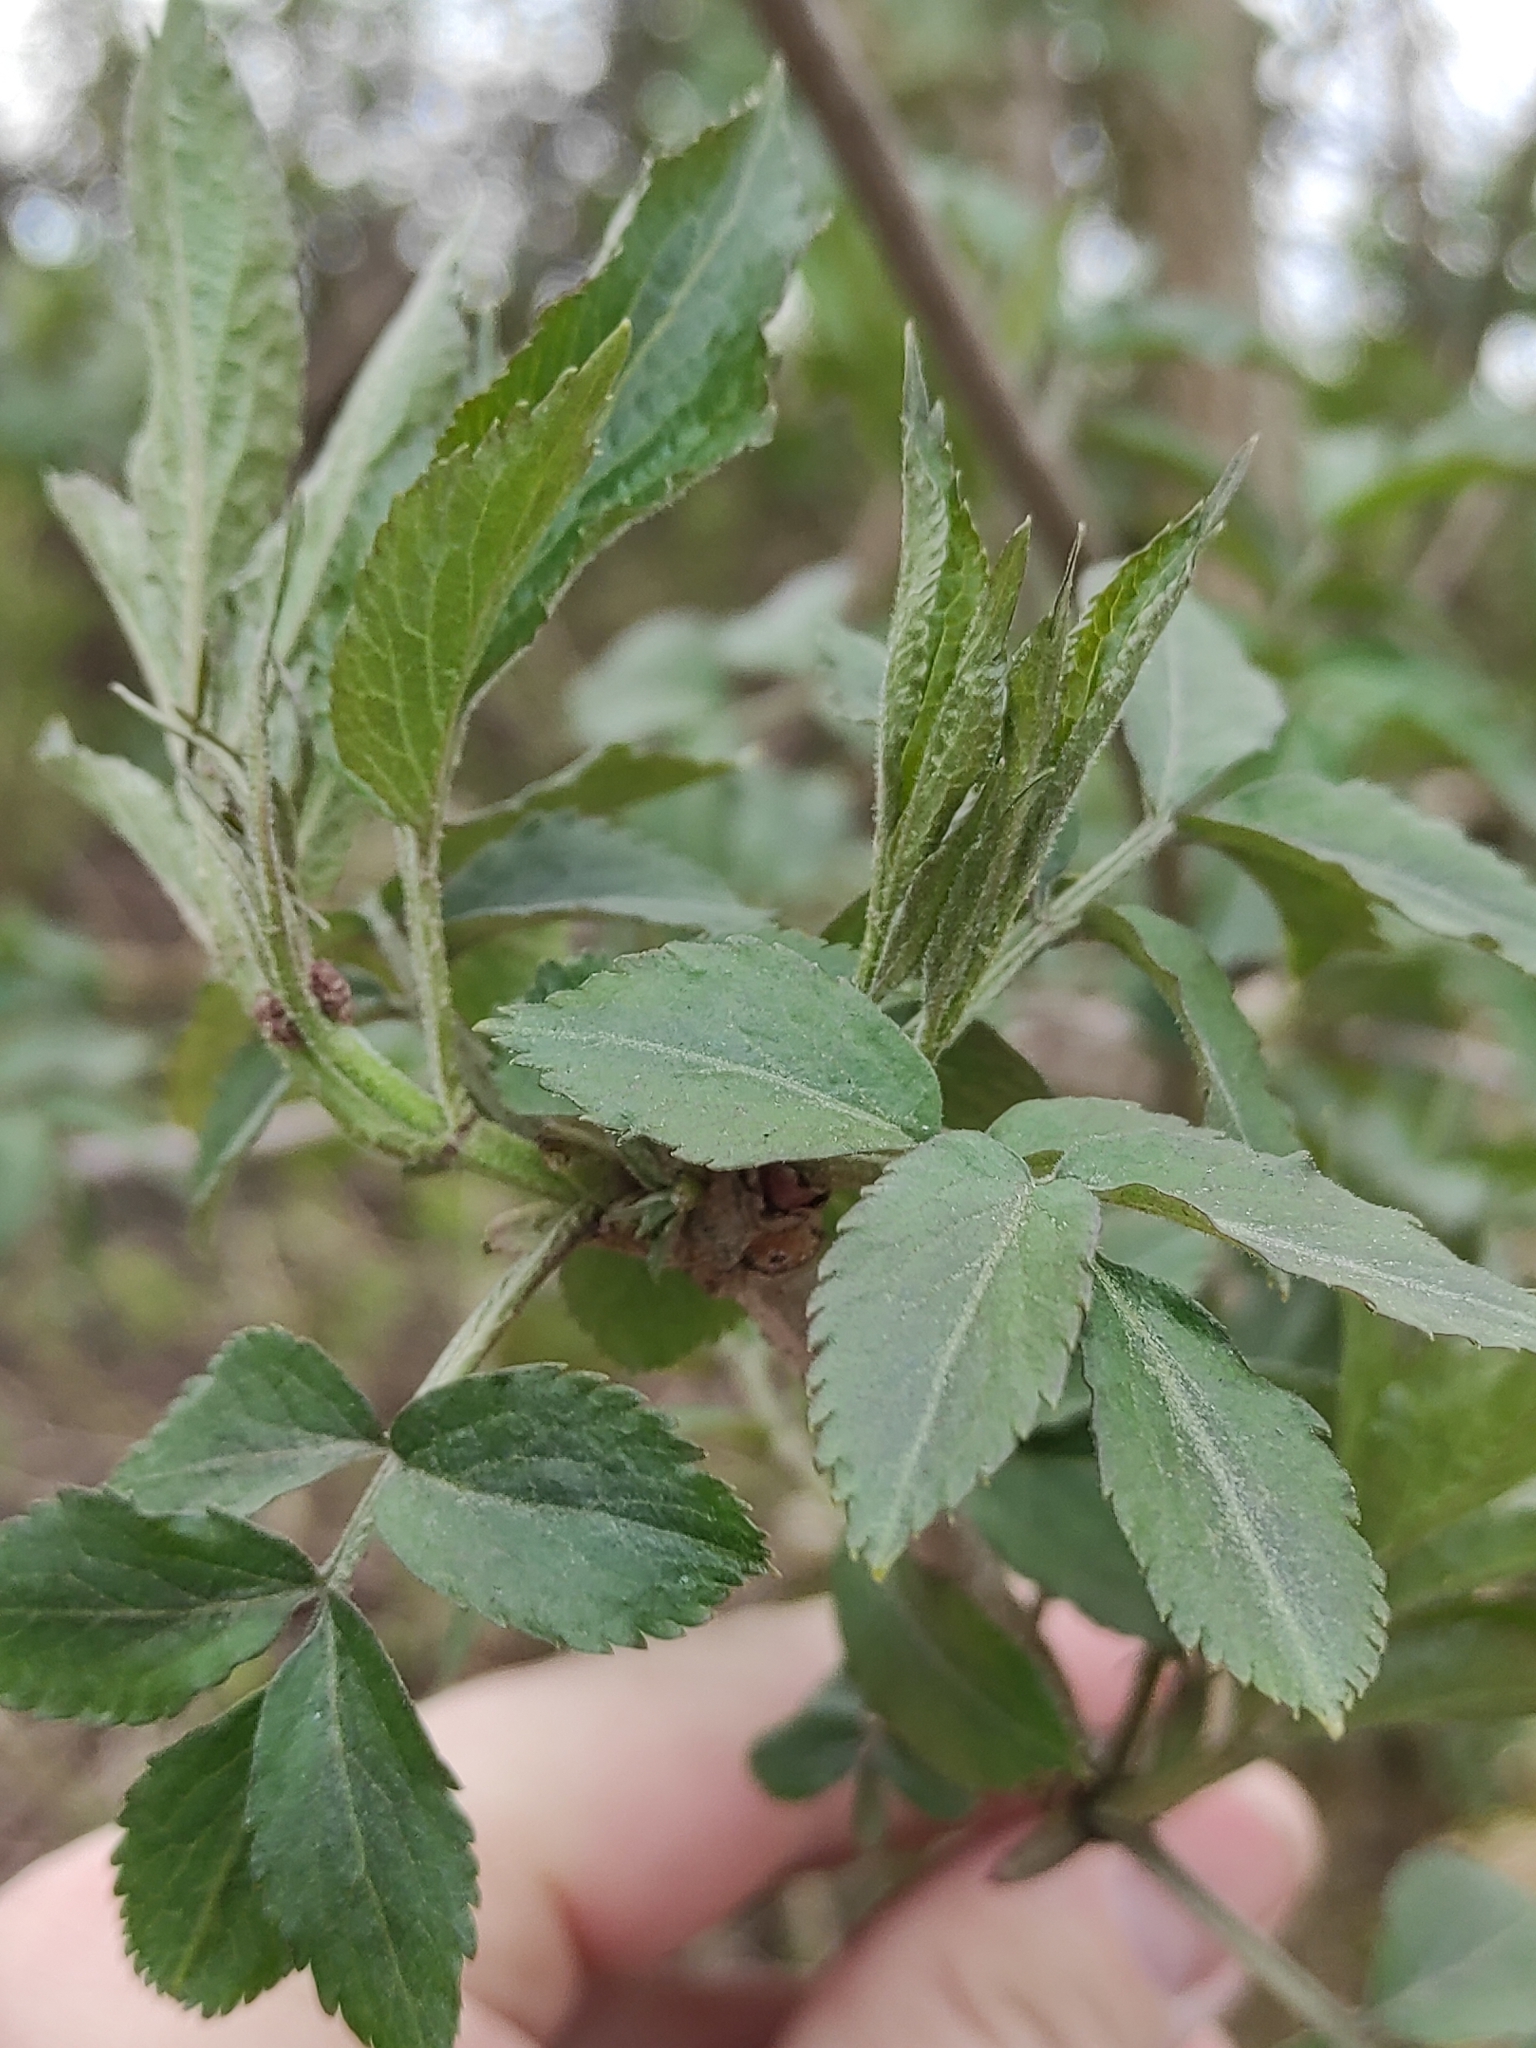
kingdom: Plantae
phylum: Tracheophyta
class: Magnoliopsida
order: Dipsacales
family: Viburnaceae
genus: Sambucus
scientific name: Sambucus nigra
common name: Elder
